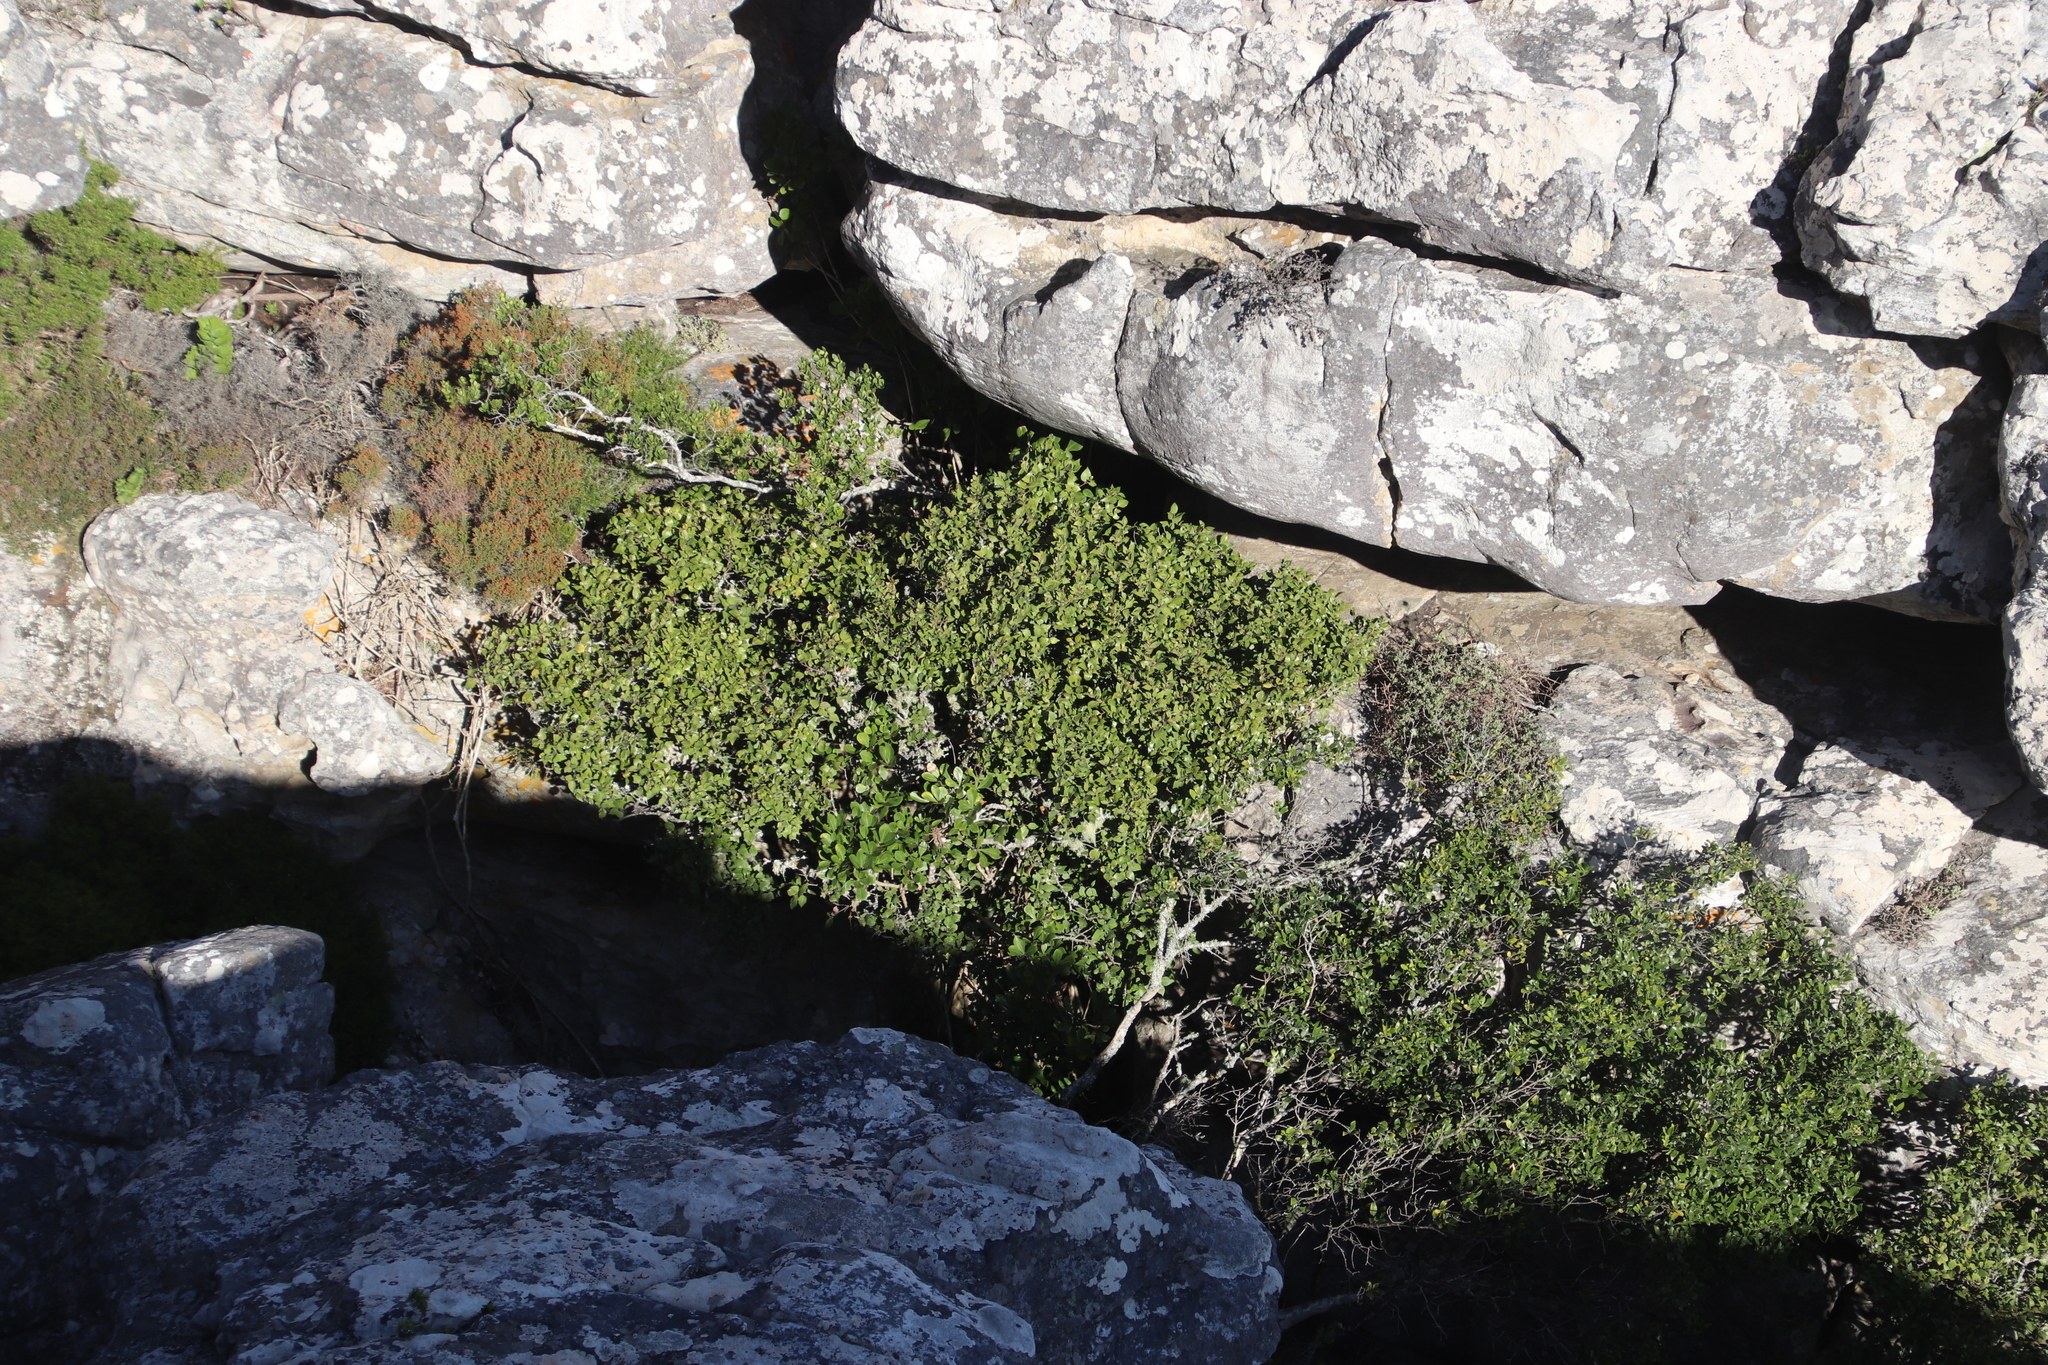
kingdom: Plantae
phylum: Tracheophyta
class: Magnoliopsida
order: Apiales
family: Araliaceae
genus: Cussonia
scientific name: Cussonia thyrsiflora
